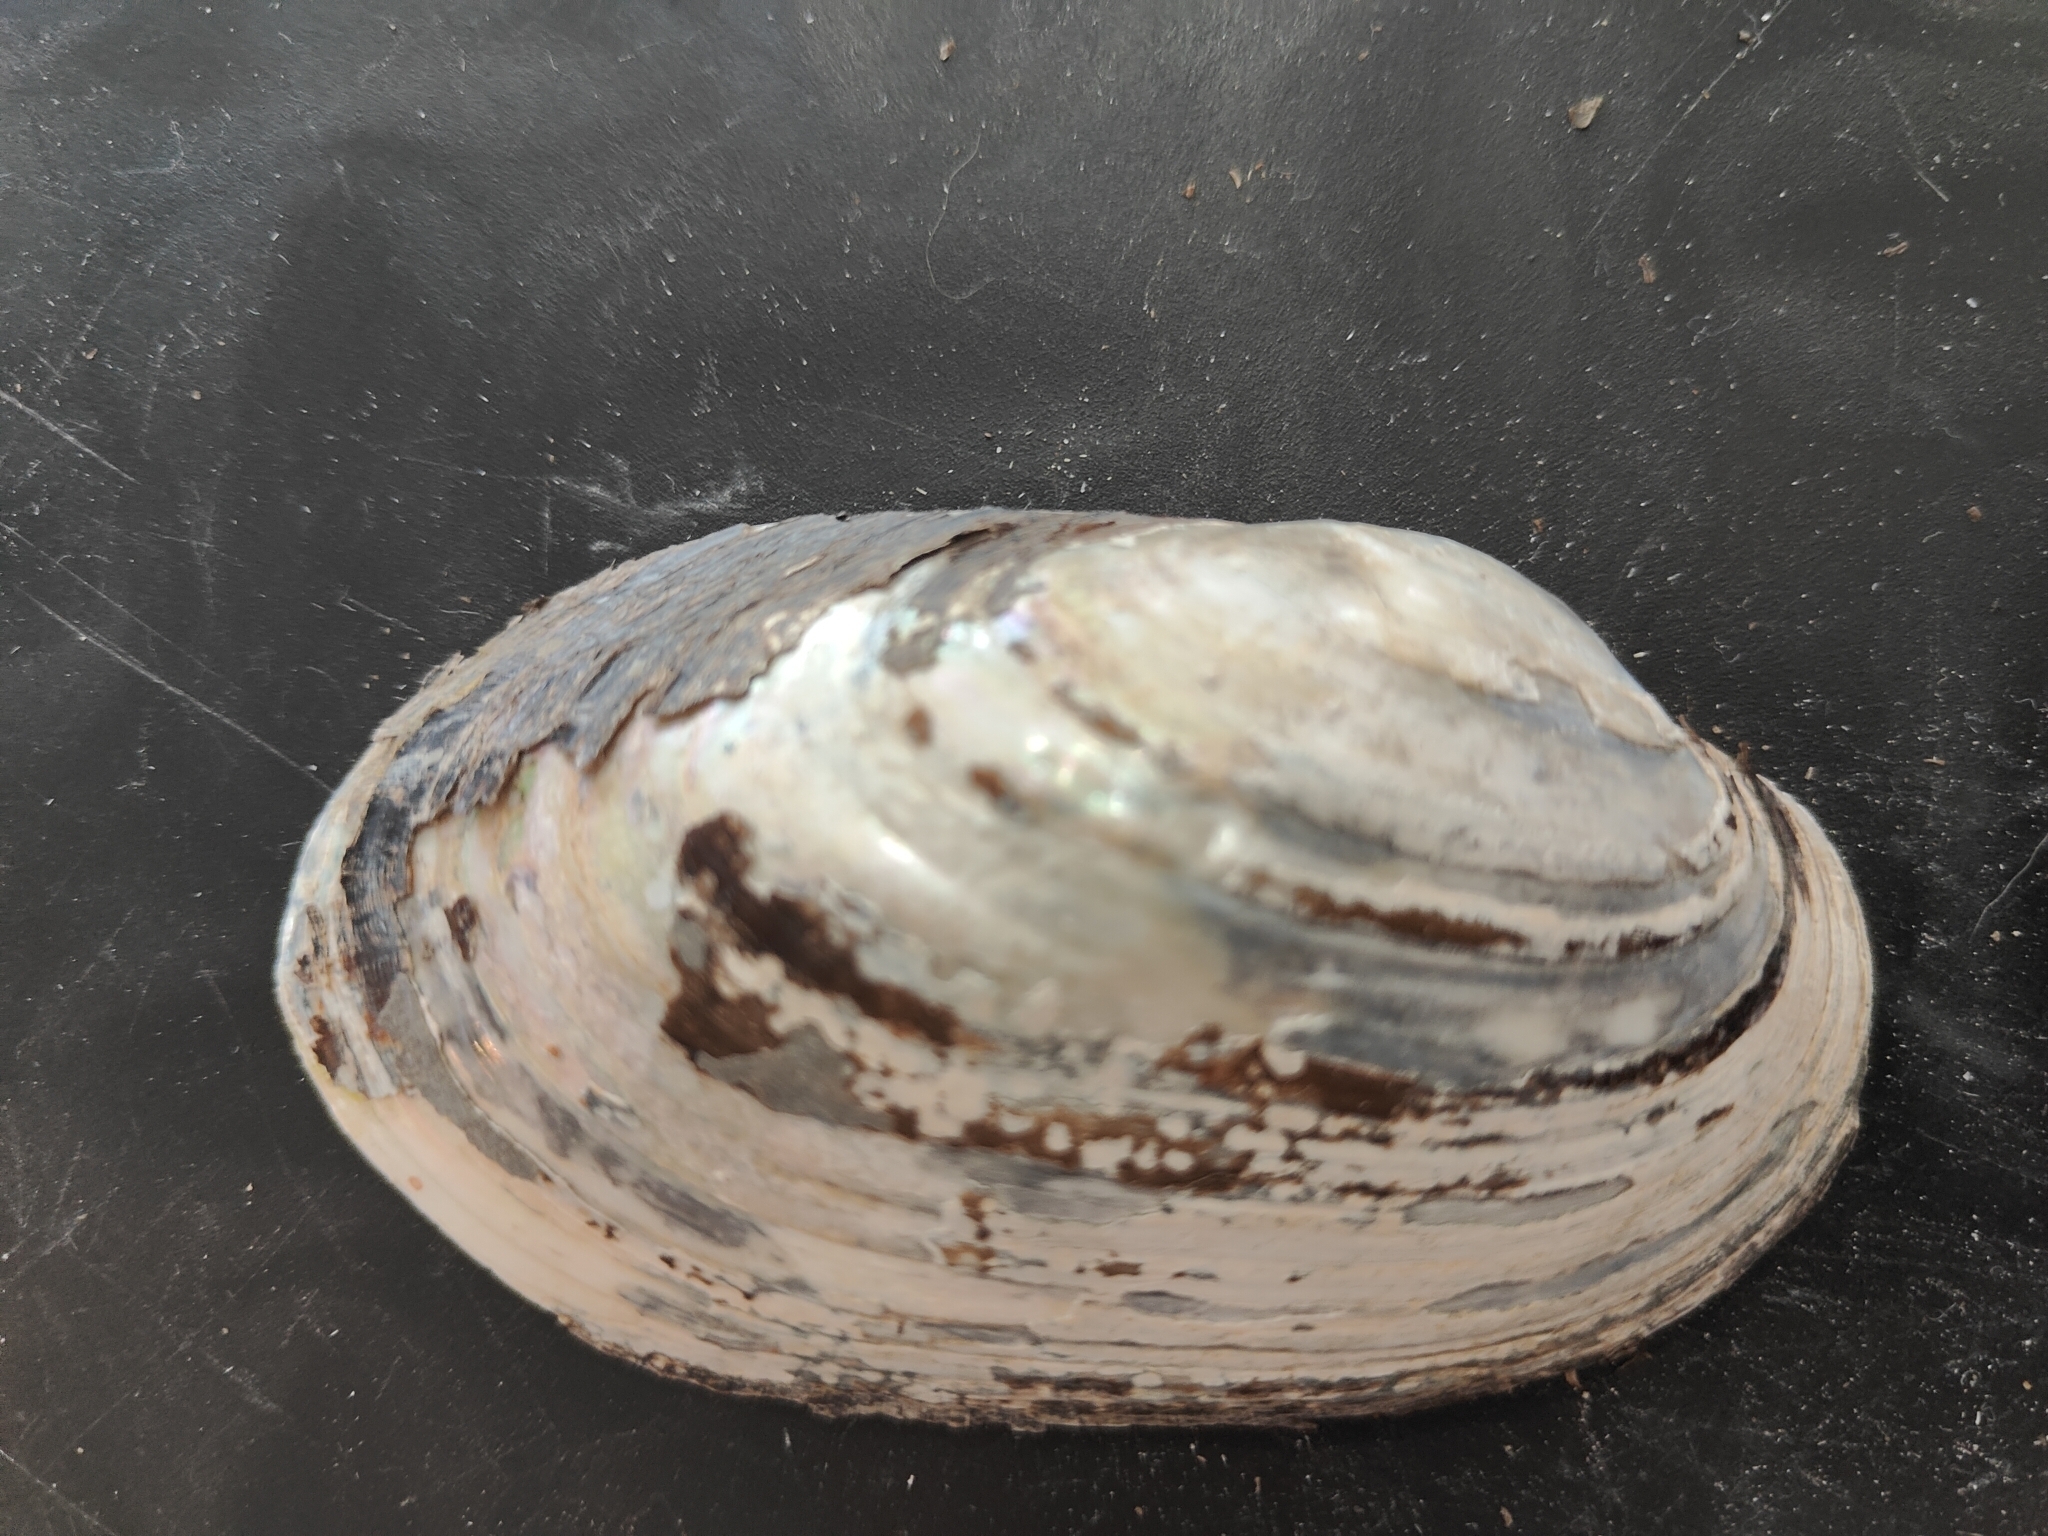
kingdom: Animalia
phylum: Mollusca
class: Bivalvia
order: Unionida
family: Unionidae
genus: Lampsilis
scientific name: Lampsilis siliquoidea
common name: Fatmucket
